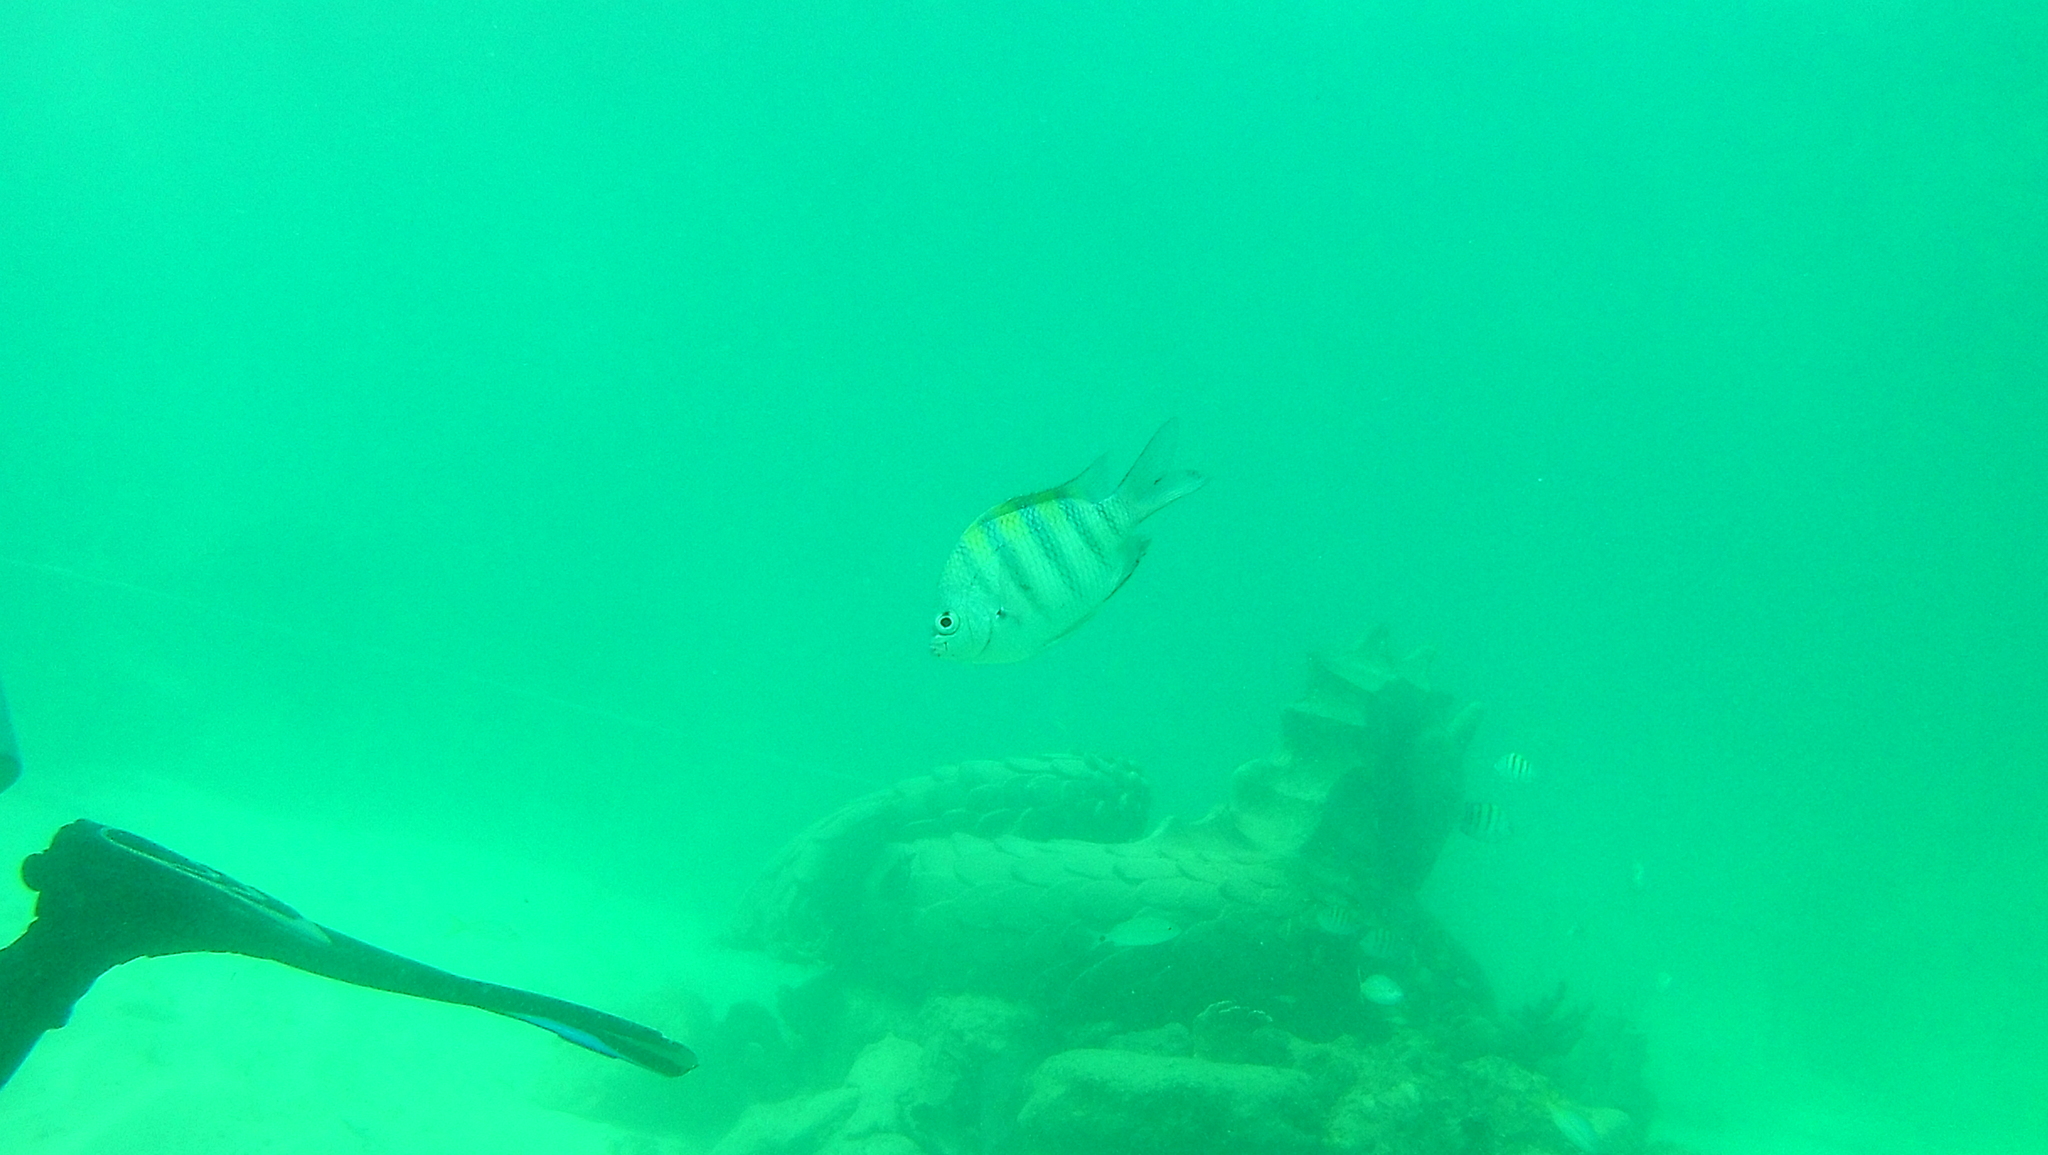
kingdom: Animalia
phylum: Chordata
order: Perciformes
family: Pomacentridae
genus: Abudefduf
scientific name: Abudefduf saxatilis
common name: Sergeant major
